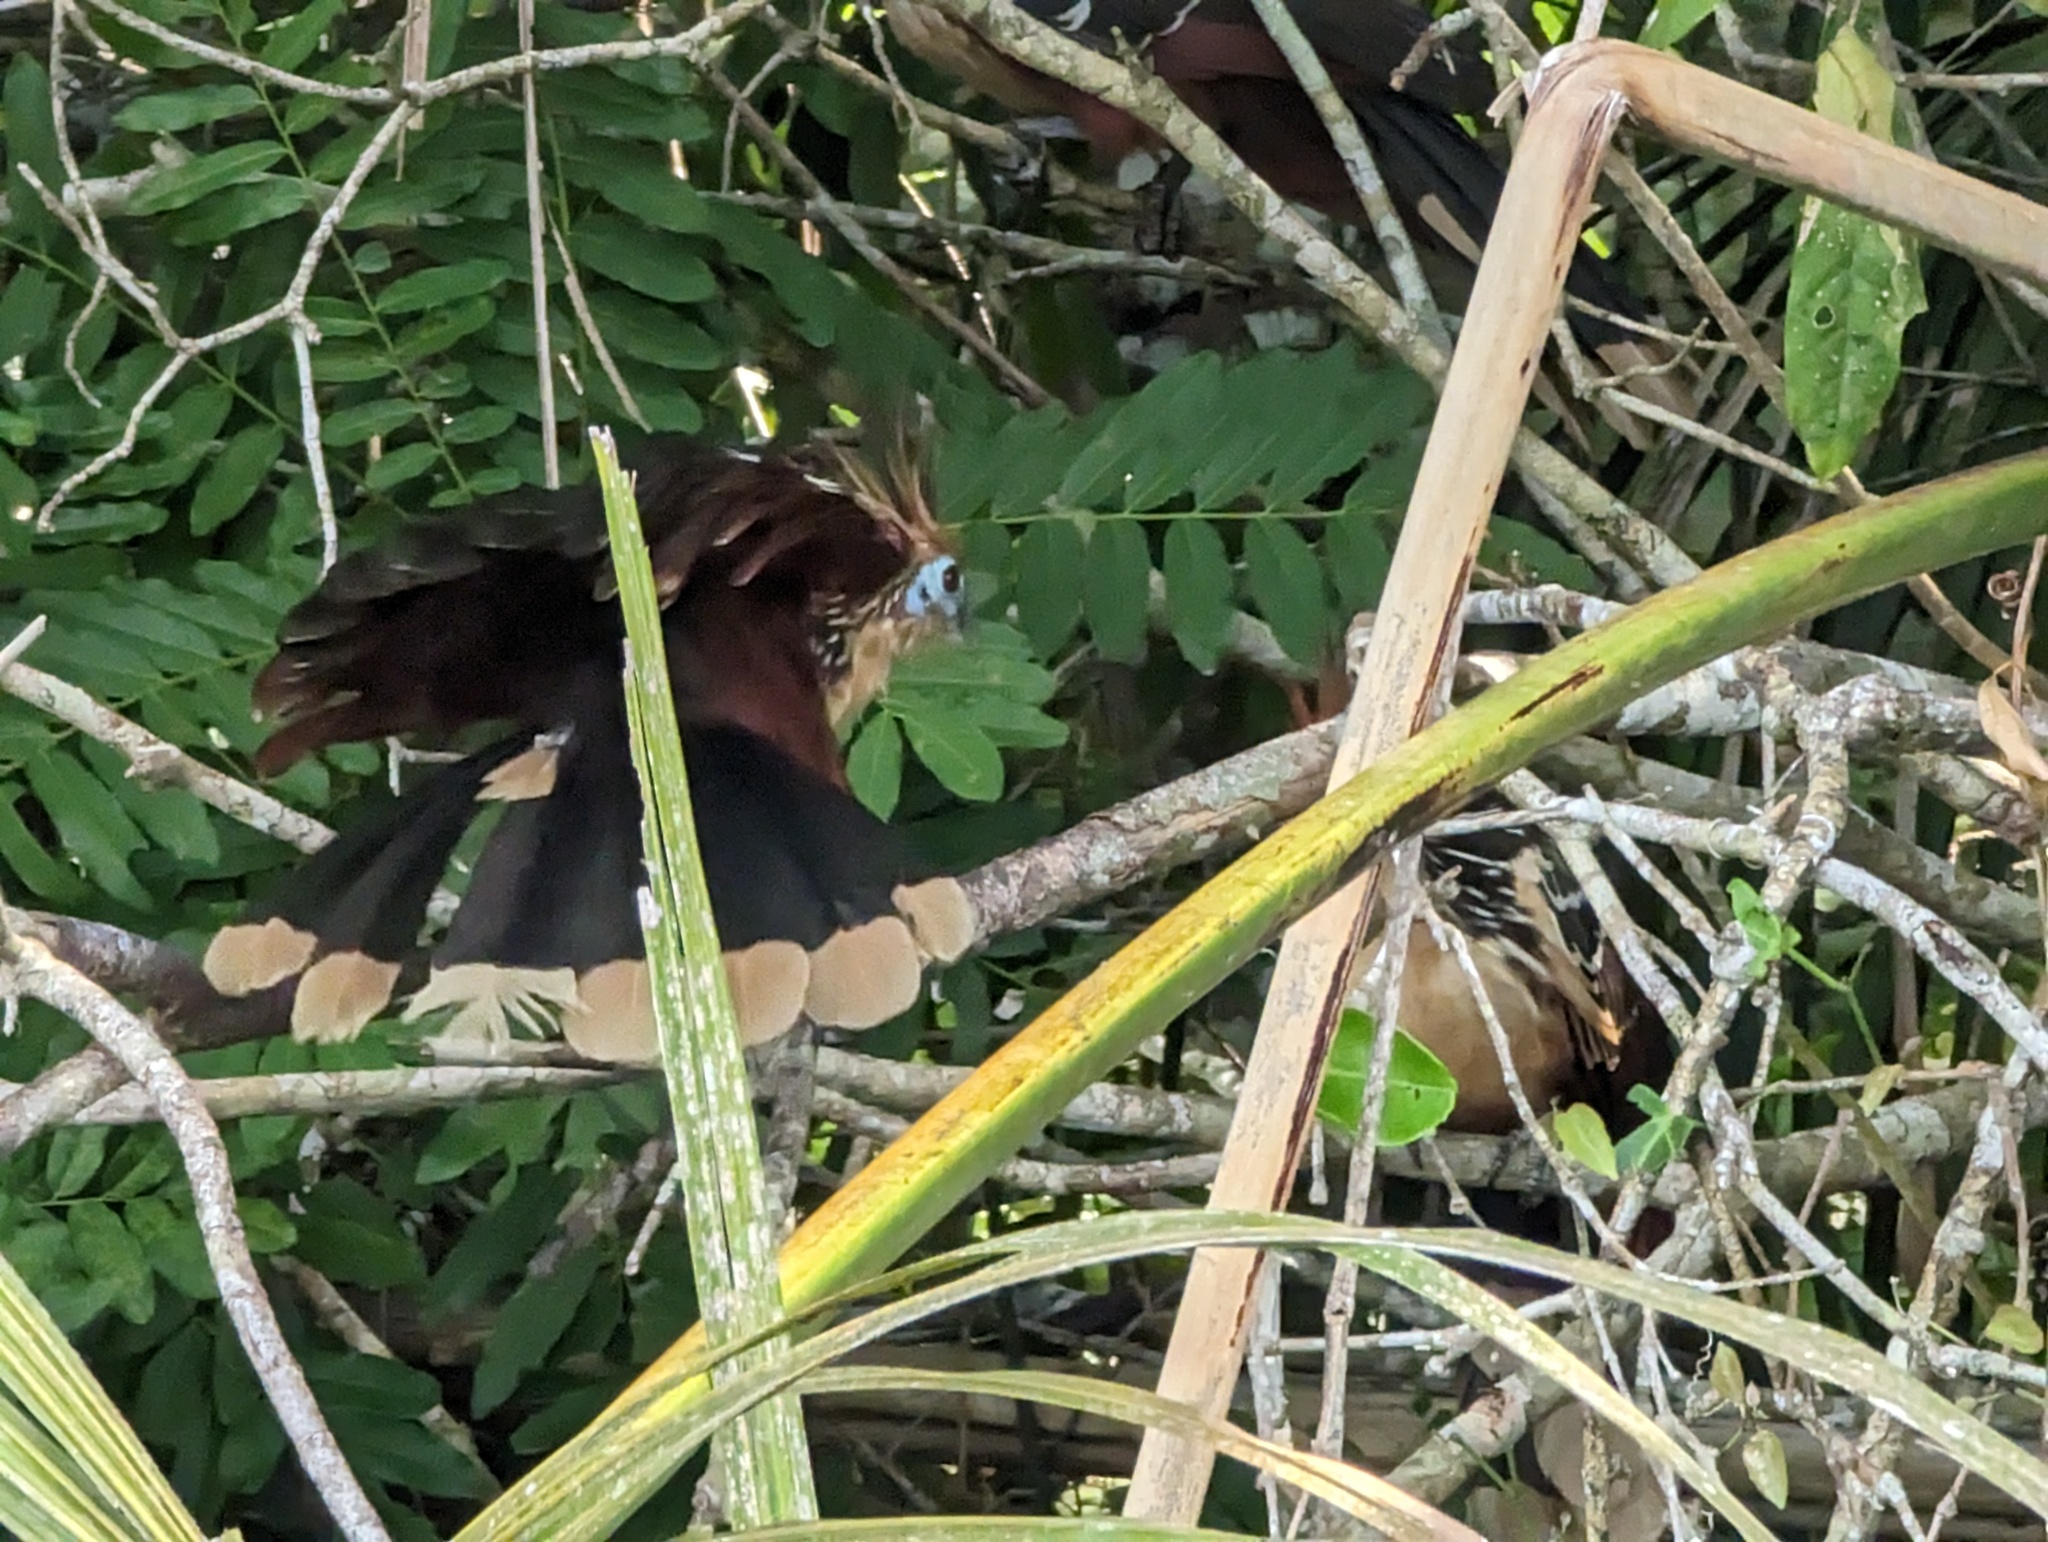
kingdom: Animalia
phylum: Chordata
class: Aves
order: Opisthocomiformes
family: Opisthocomidae
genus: Opisthocomus
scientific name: Opisthocomus hoazin
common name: Hoatzin
